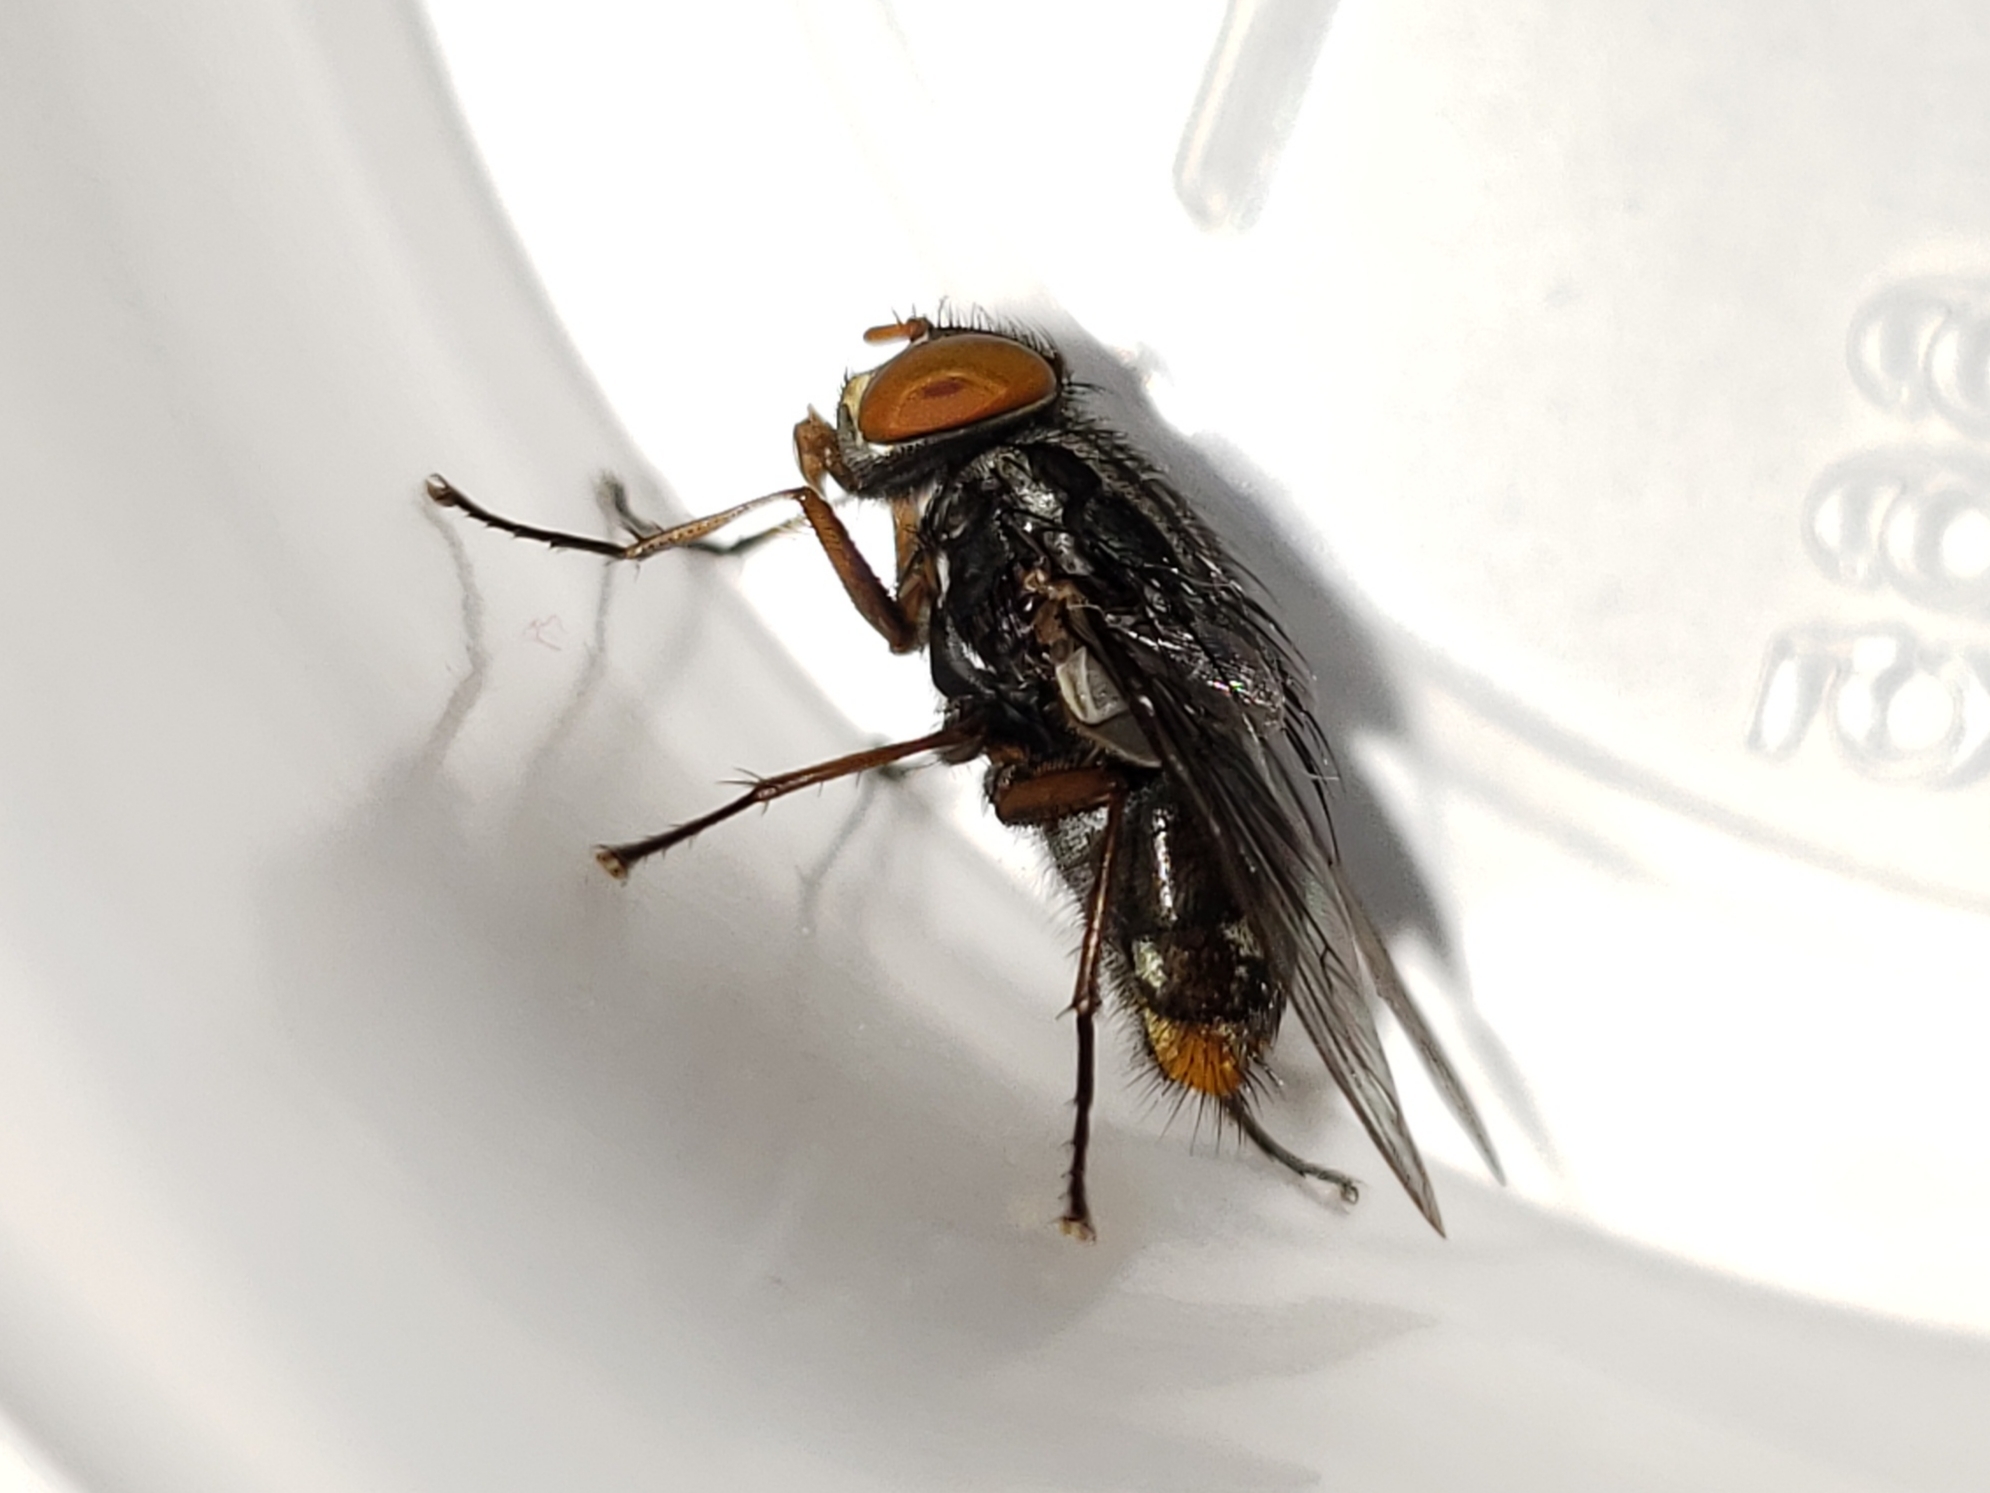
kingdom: Animalia
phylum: Arthropoda
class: Insecta
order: Diptera
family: Muscidae
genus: Synthesiomyia
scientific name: Synthesiomyia nudiseta
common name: Fly
